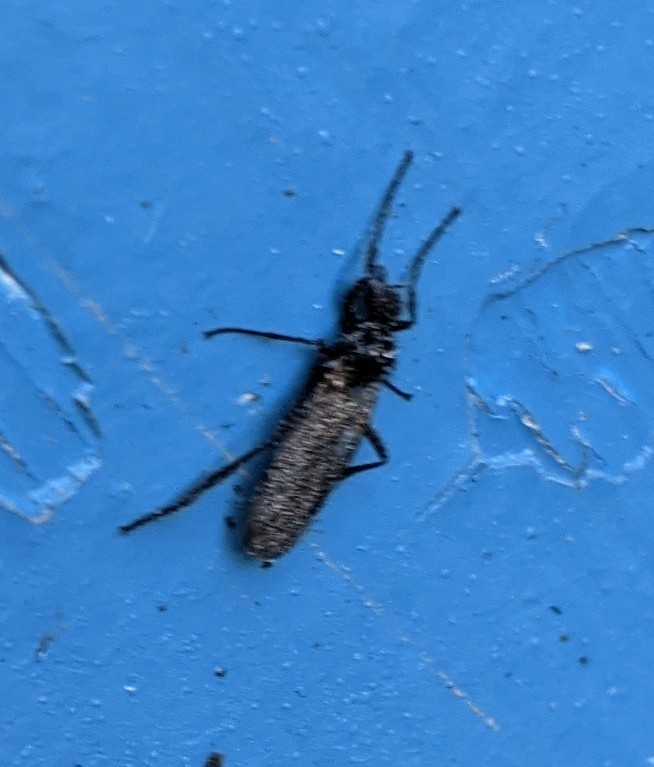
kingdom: Animalia
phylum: Arthropoda
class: Insecta
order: Diptera
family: Bibionidae
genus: Bibio
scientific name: Bibio
